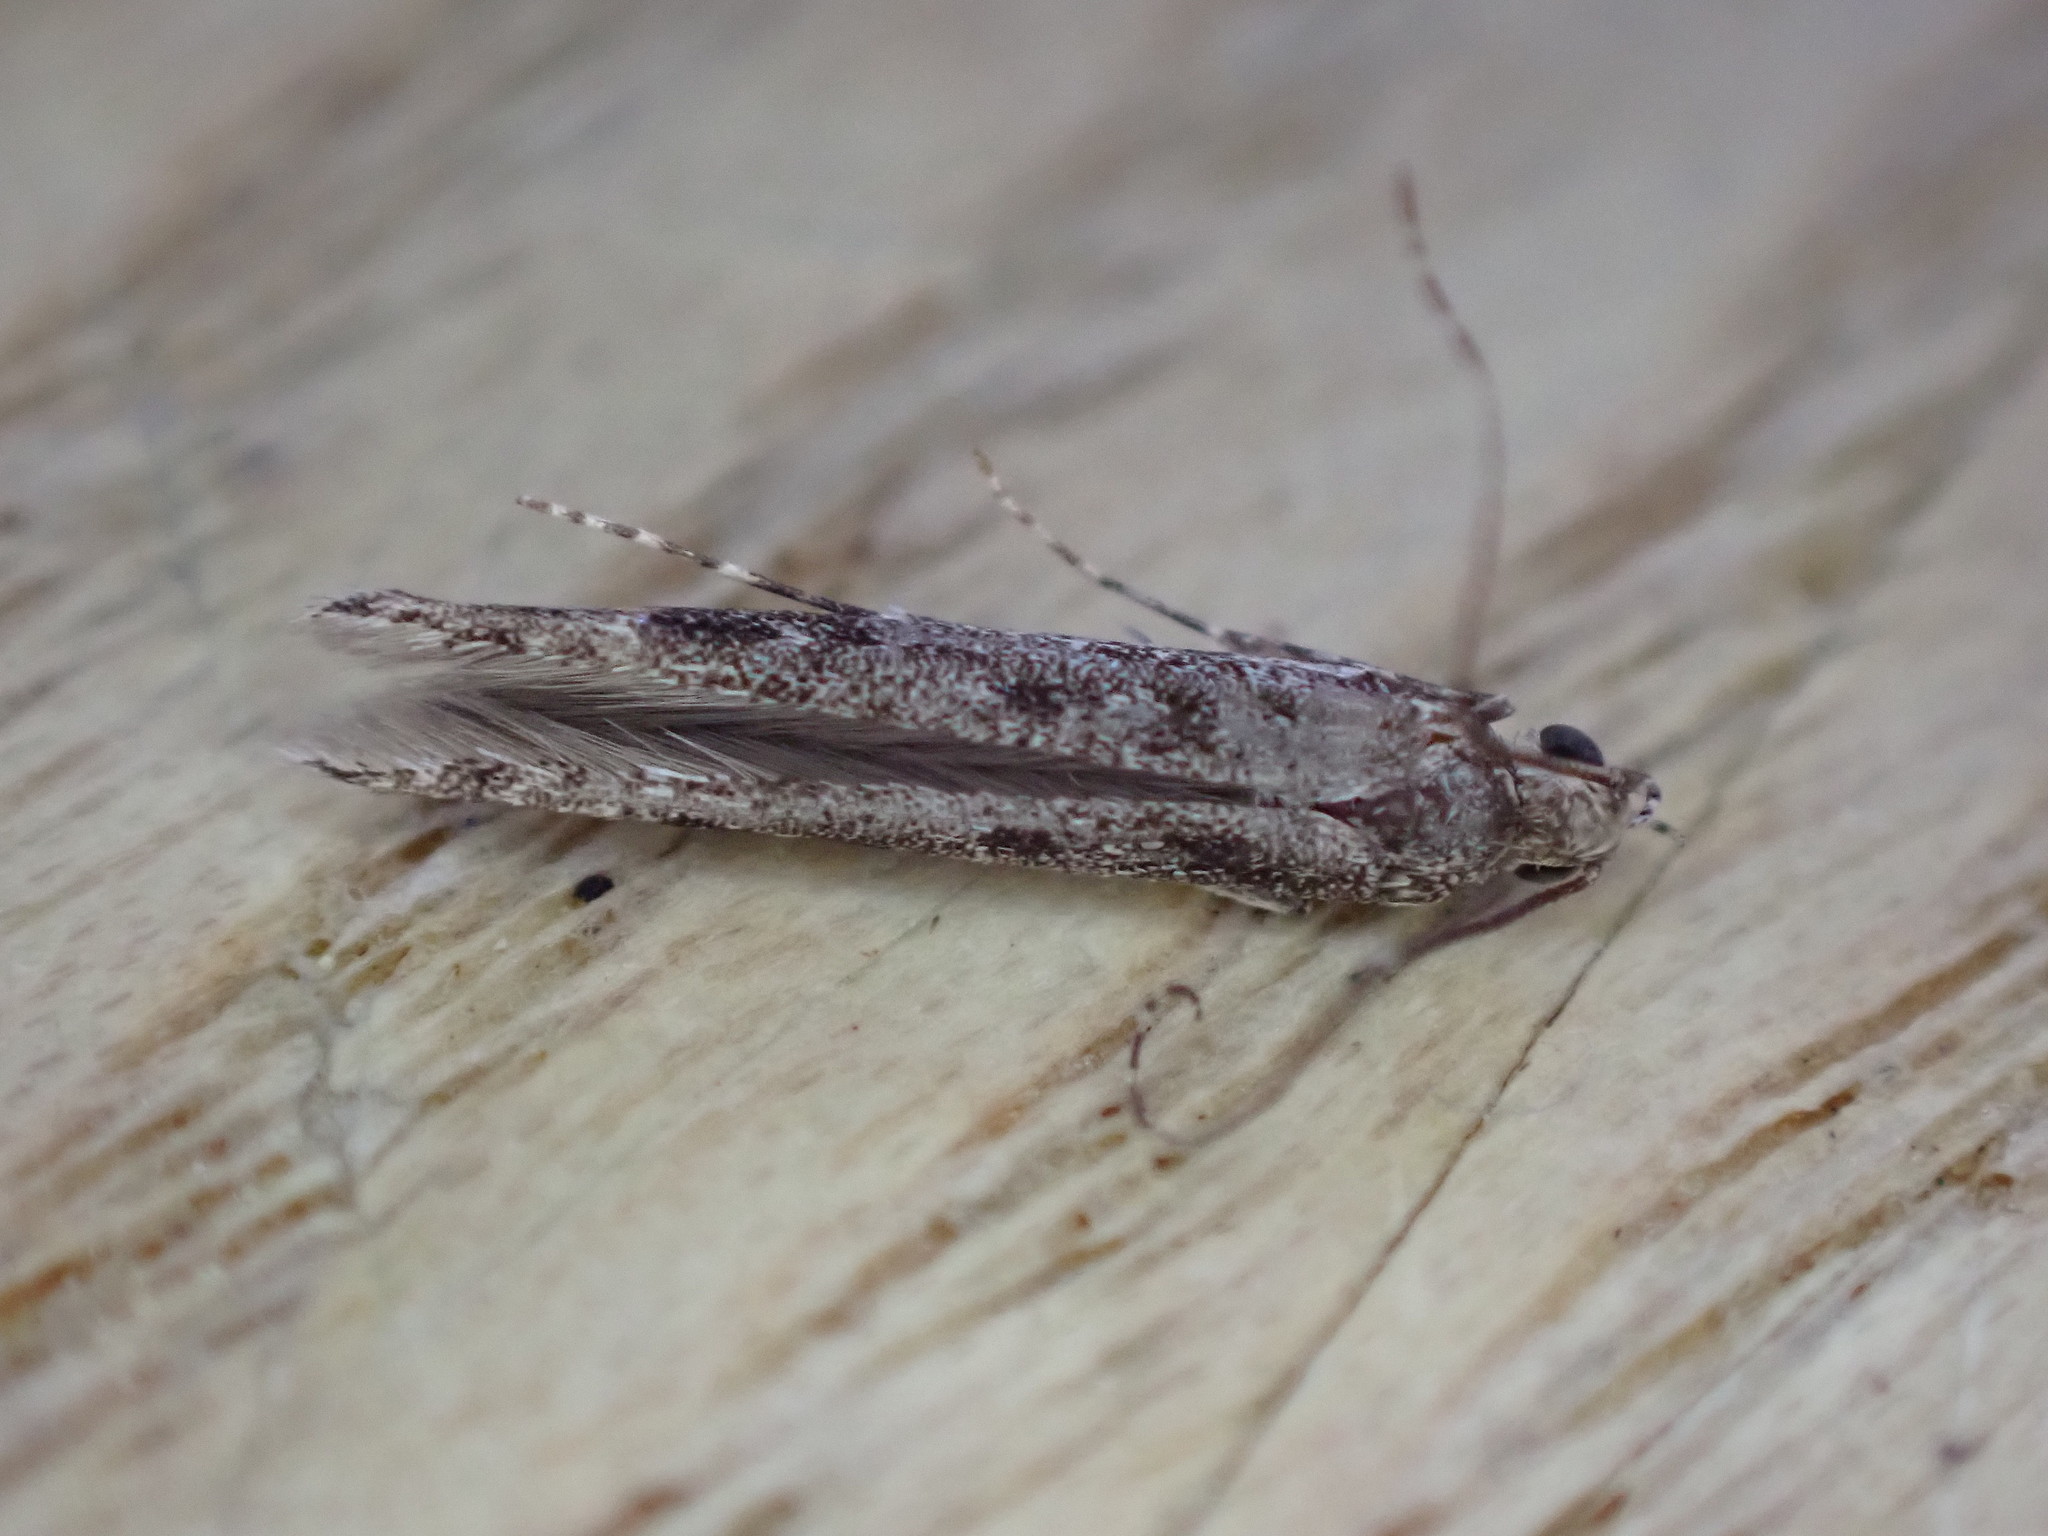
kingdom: Animalia
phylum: Arthropoda
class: Insecta
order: Lepidoptera
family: Batrachedridae
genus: Batrachedra
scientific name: Batrachedra praeangusta
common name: Poplar cosmet
